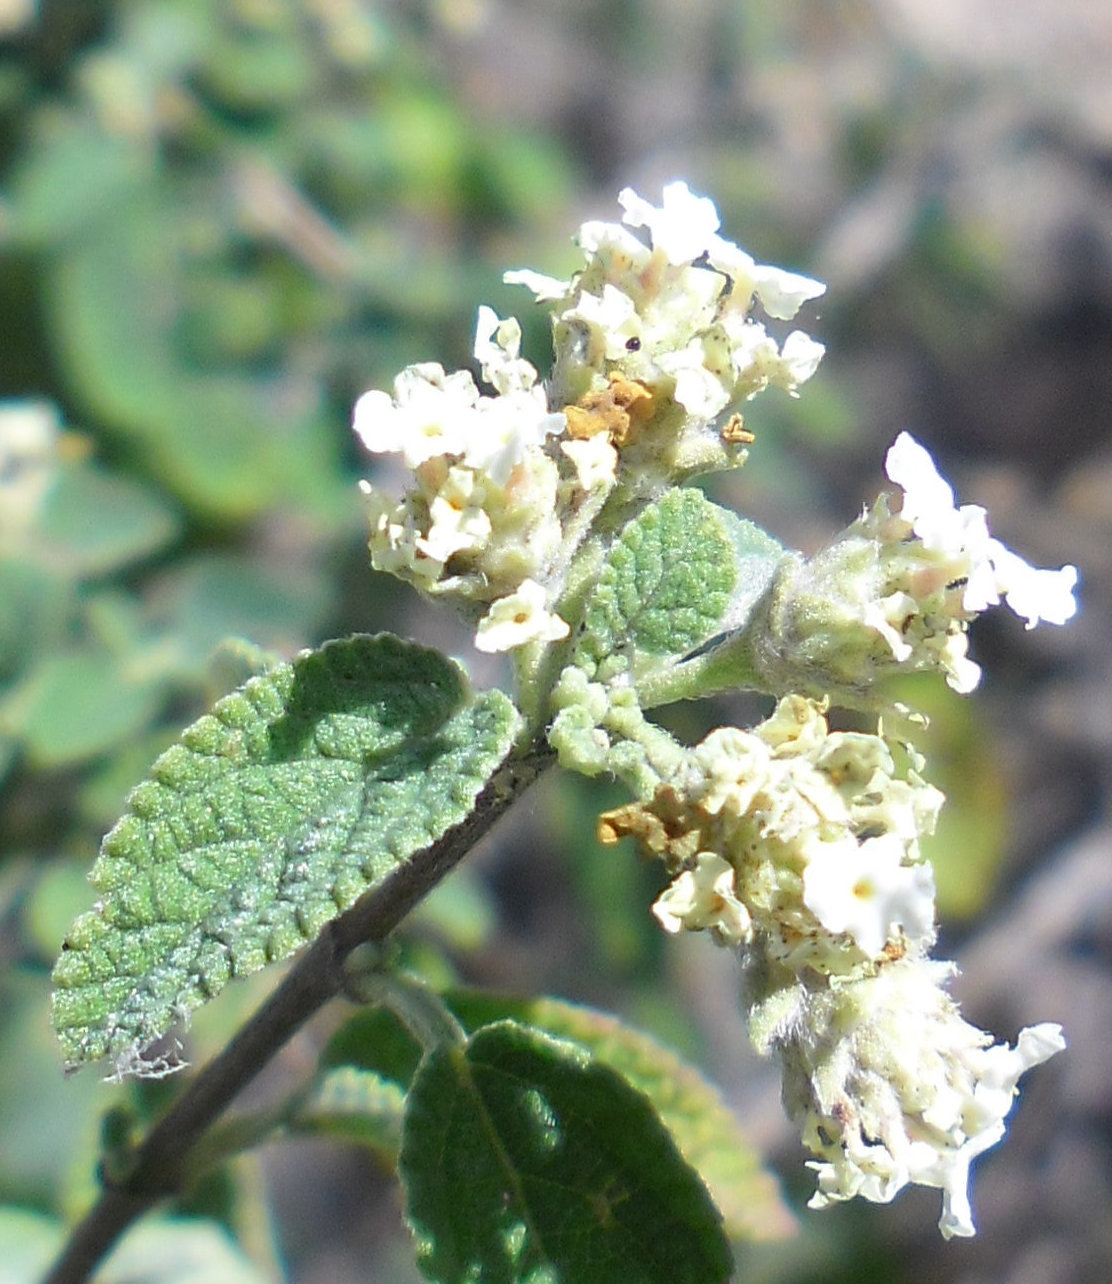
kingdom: Plantae
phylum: Tracheophyta
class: Magnoliopsida
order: Lamiales
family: Verbenaceae
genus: Lippia
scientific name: Lippia origanoides
